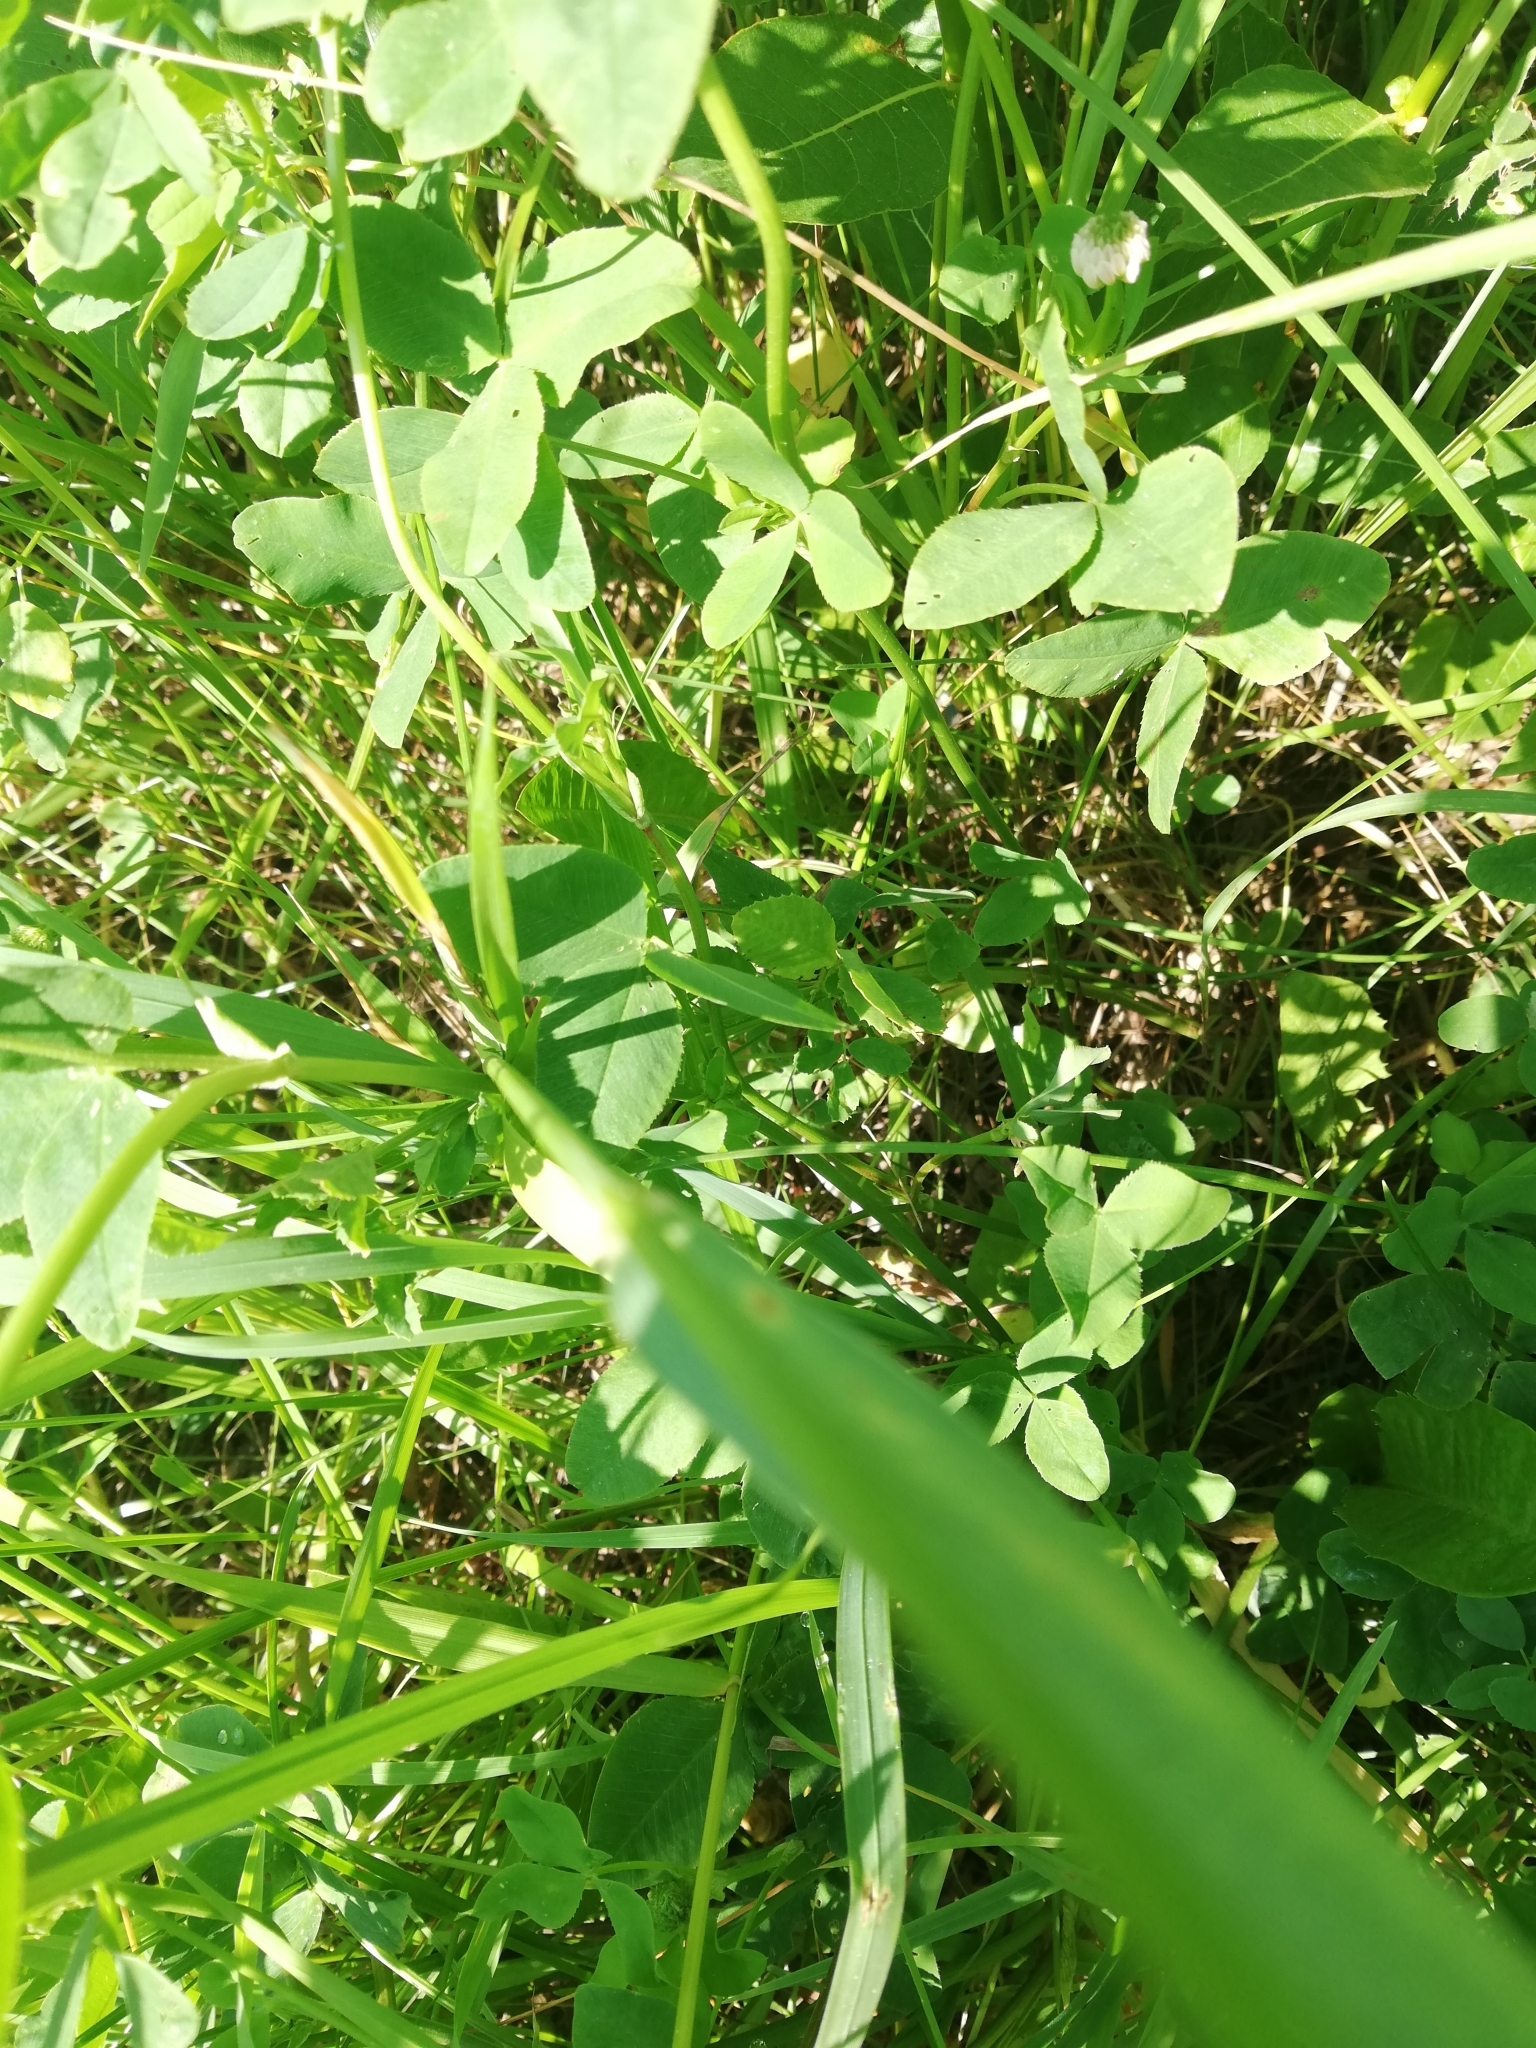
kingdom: Plantae
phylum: Tracheophyta
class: Liliopsida
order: Poales
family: Poaceae
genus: Elymus
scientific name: Elymus repens
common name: Quackgrass
